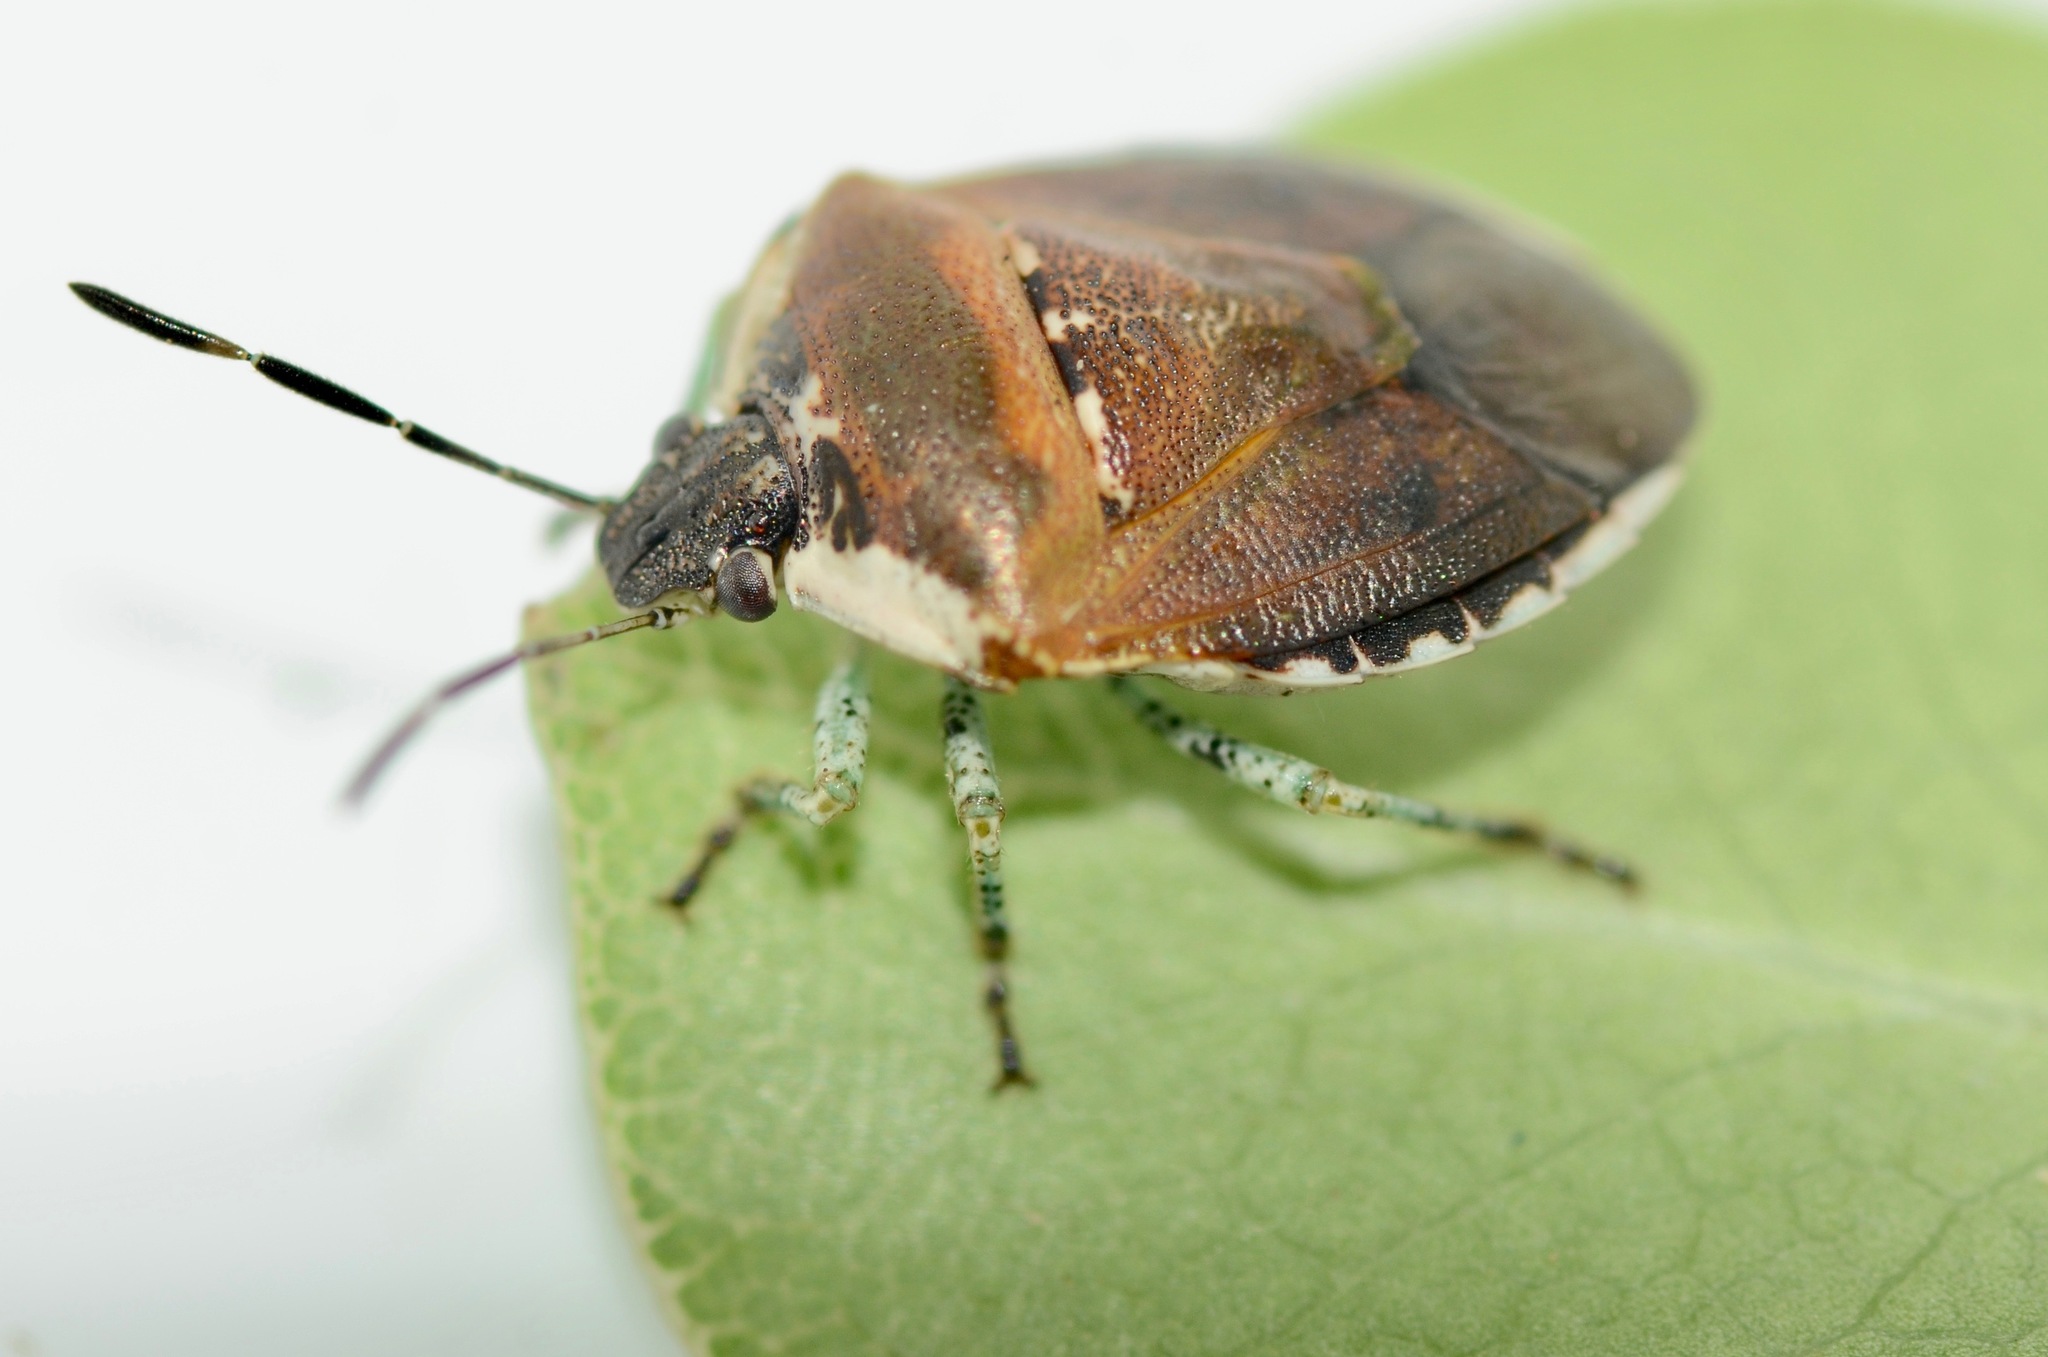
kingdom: Animalia
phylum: Arthropoda
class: Insecta
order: Hemiptera
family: Pentatomidae
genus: Monteithiella
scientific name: Monteithiella
